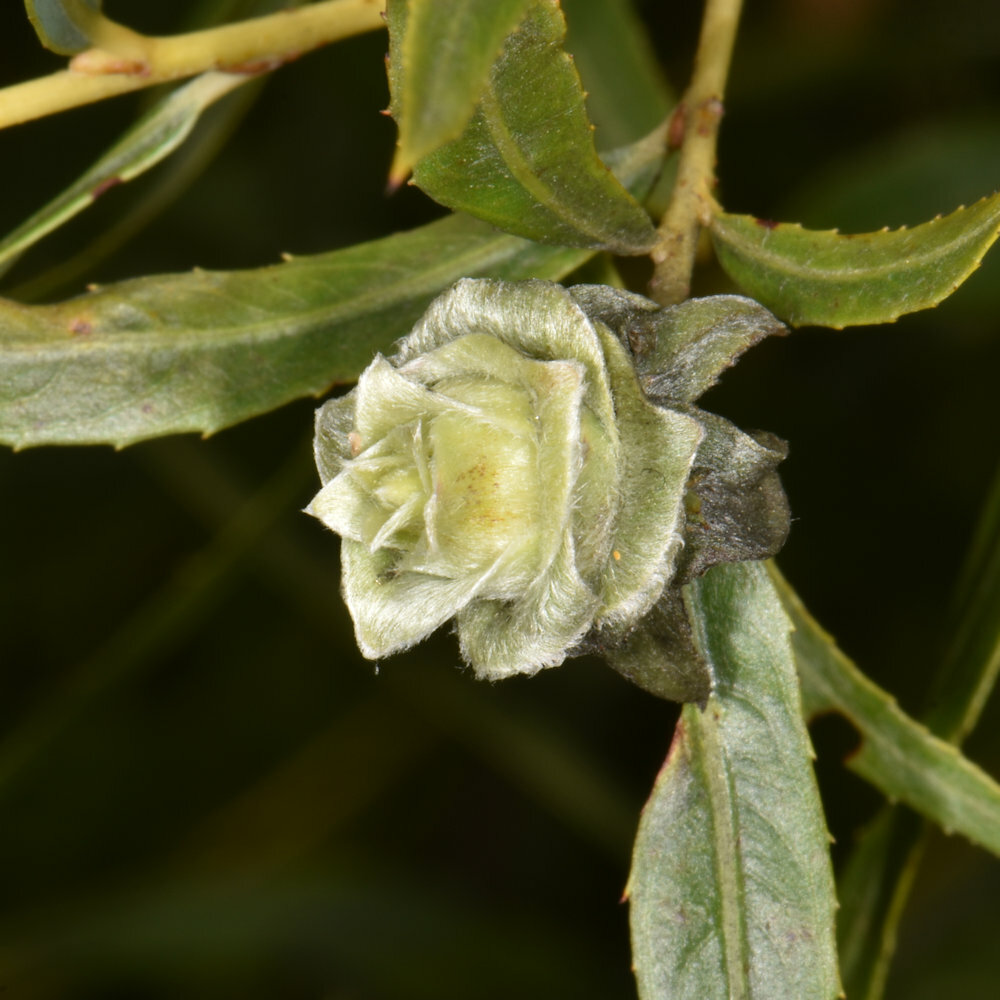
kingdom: Animalia
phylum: Arthropoda
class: Insecta
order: Diptera
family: Cecidomyiidae
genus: Rabdophaga
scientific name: Rabdophaga salicisbrassicoides
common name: Willow cabbagegall midge
